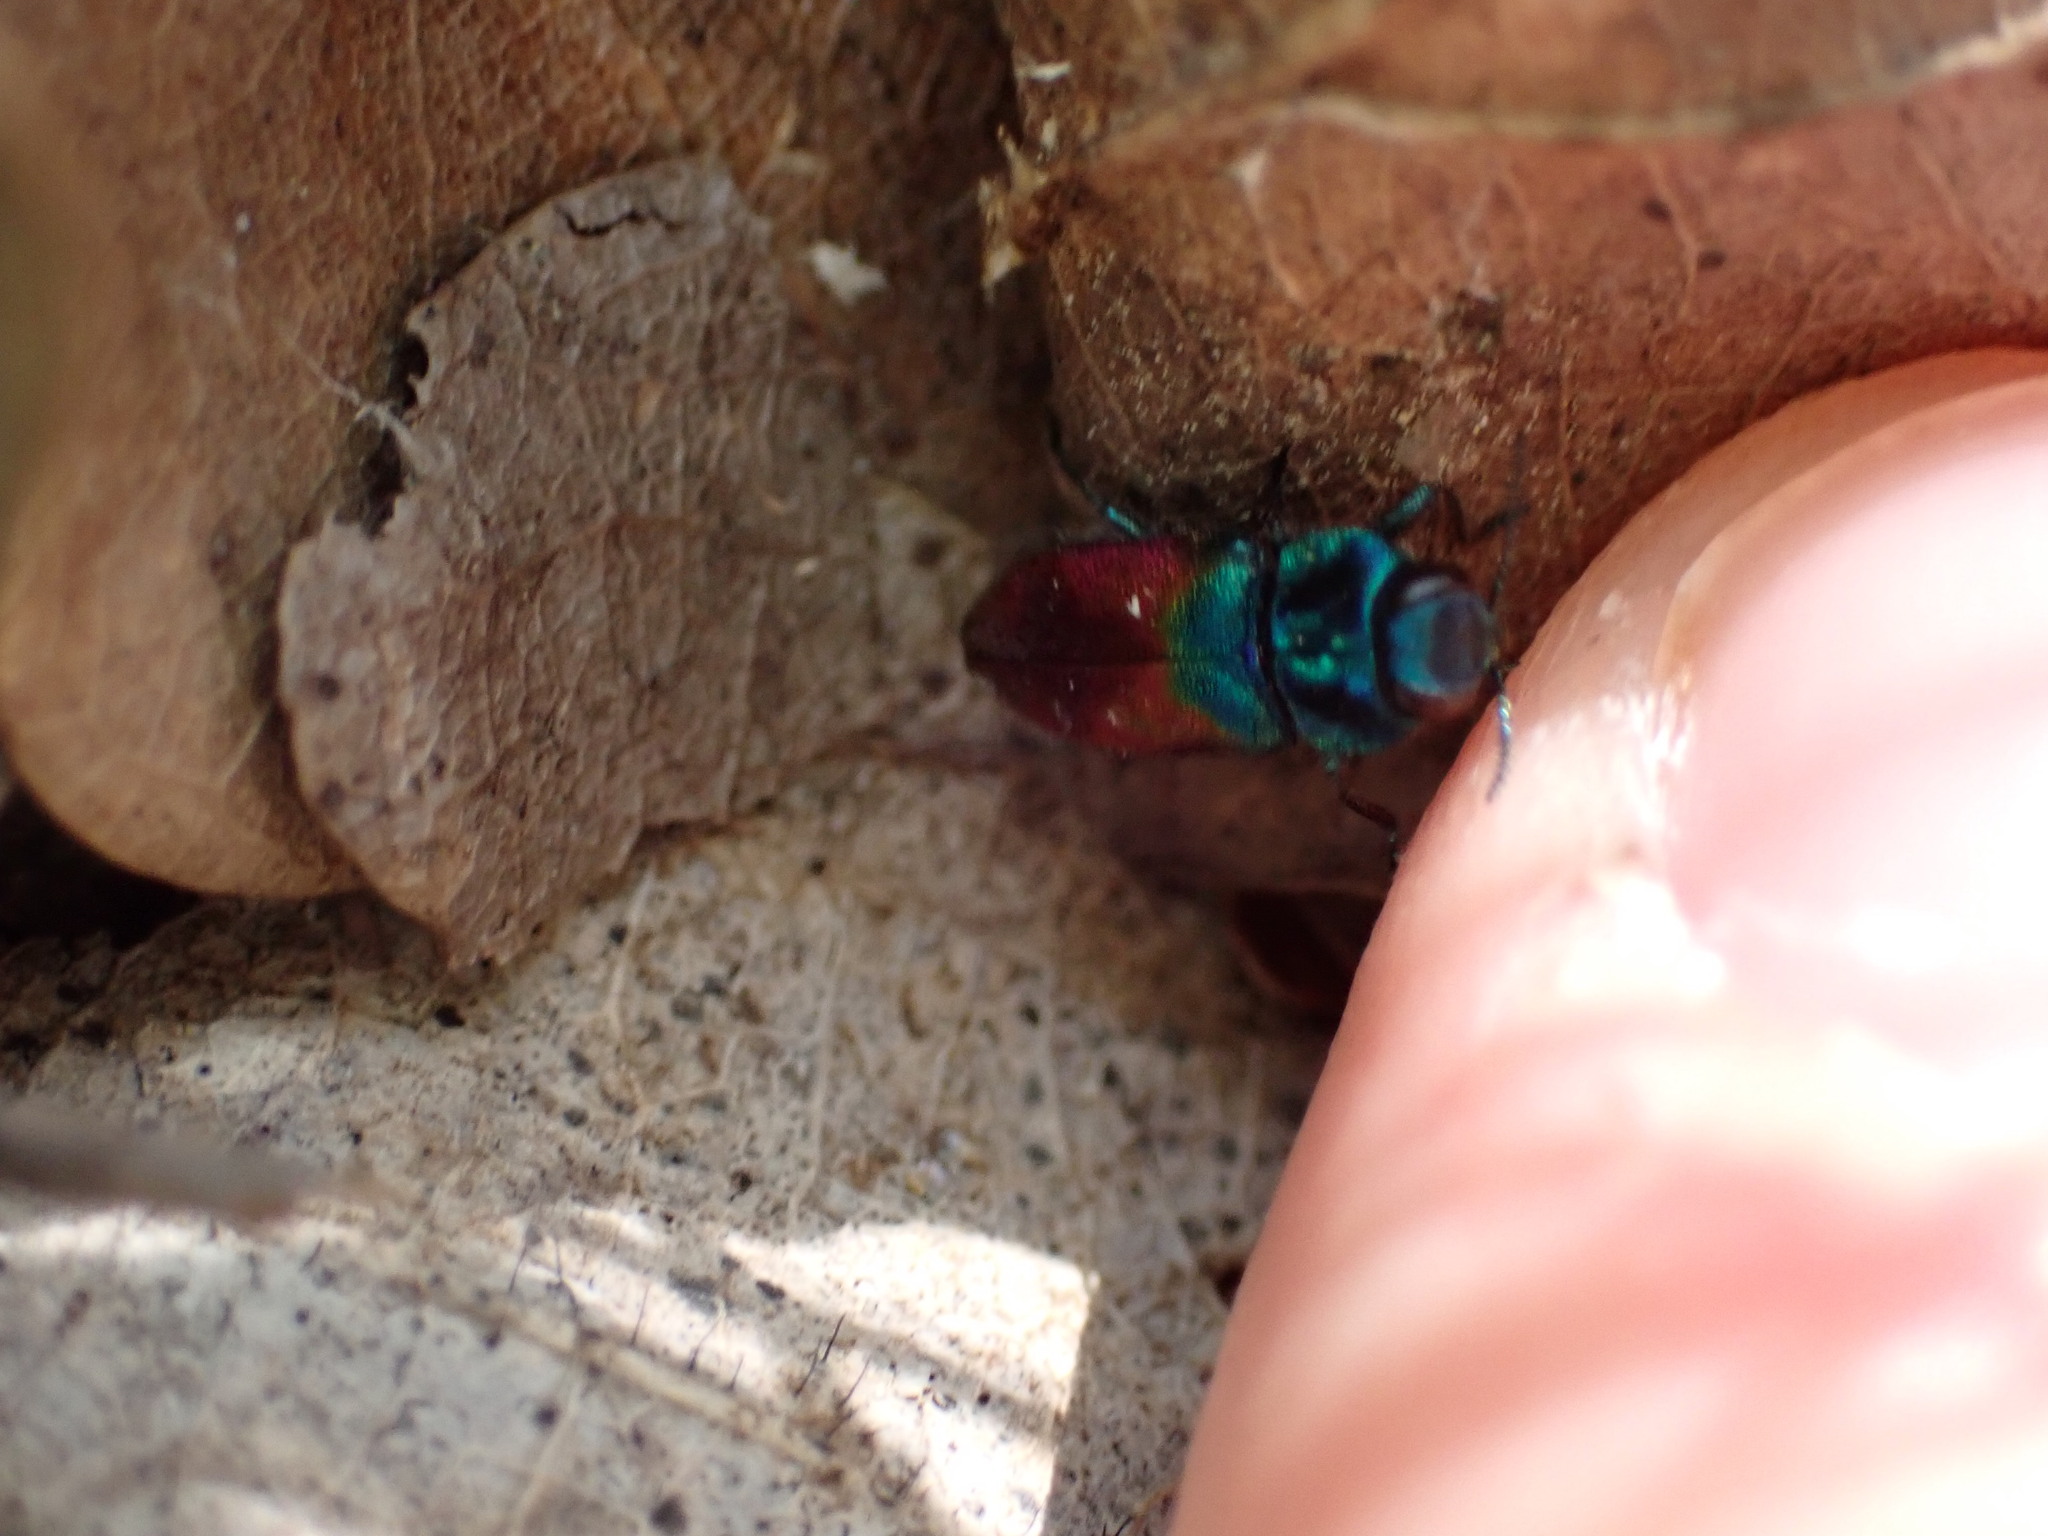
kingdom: Animalia
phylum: Arthropoda
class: Insecta
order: Coleoptera
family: Buprestidae
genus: Anthaxia
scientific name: Anthaxia salicis
